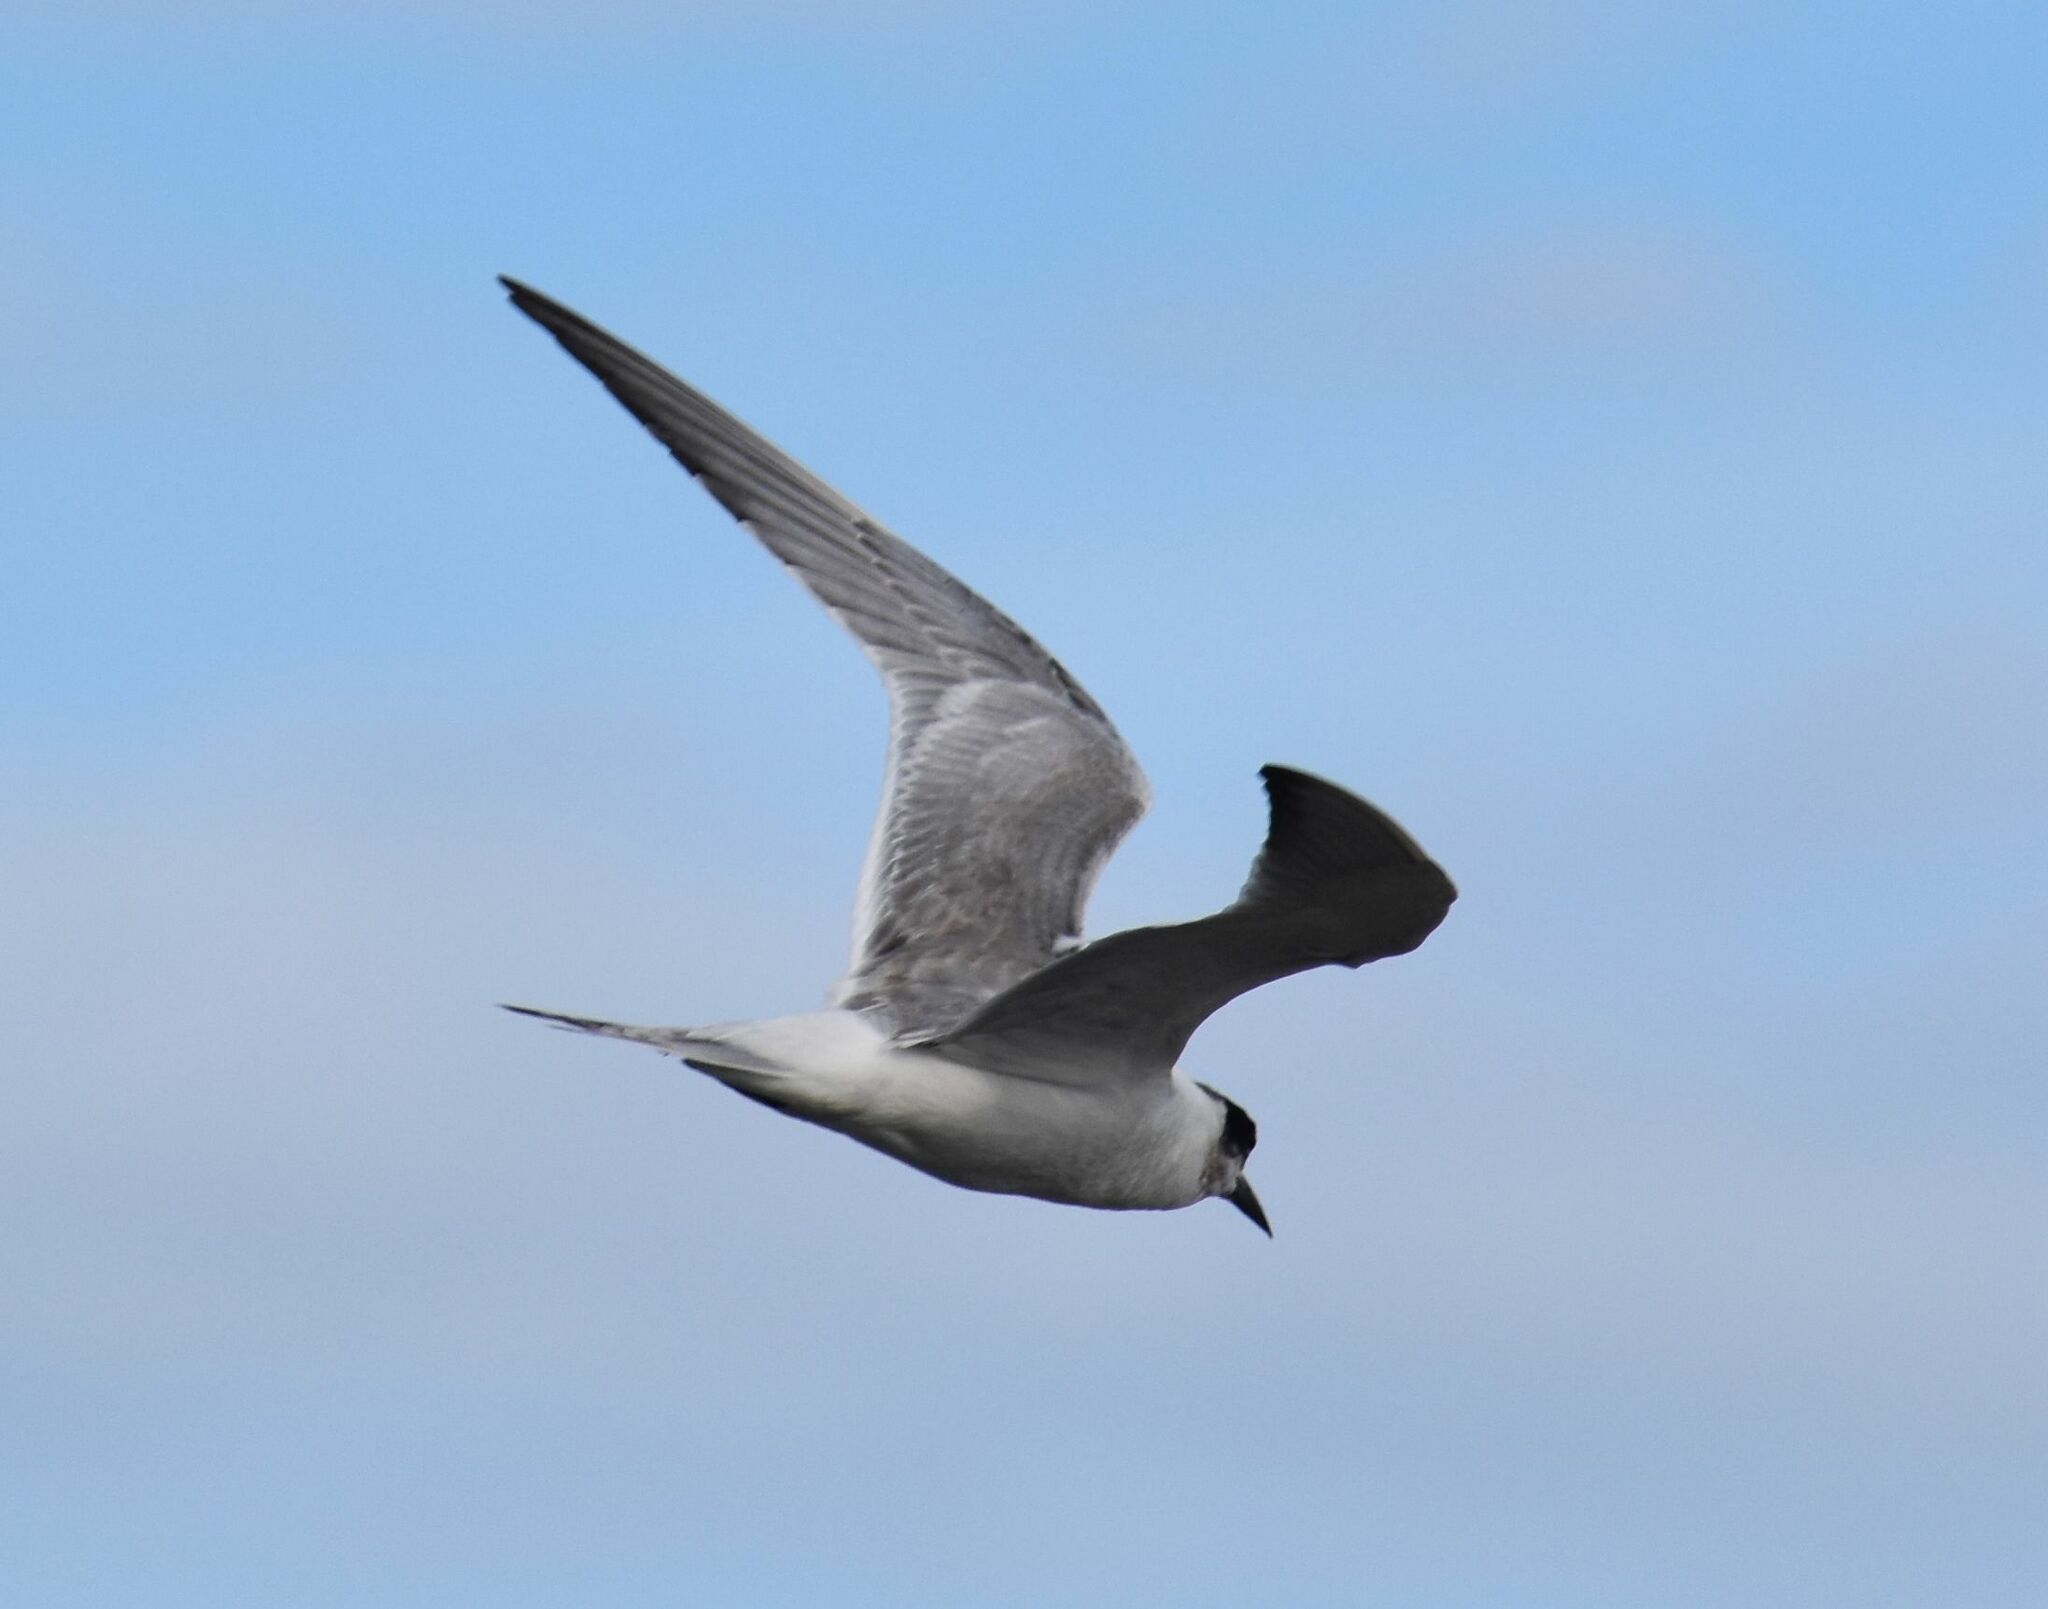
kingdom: Animalia
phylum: Chordata
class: Aves
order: Charadriiformes
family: Laridae
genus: Sterna
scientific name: Sterna forsteri
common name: Forster's tern
